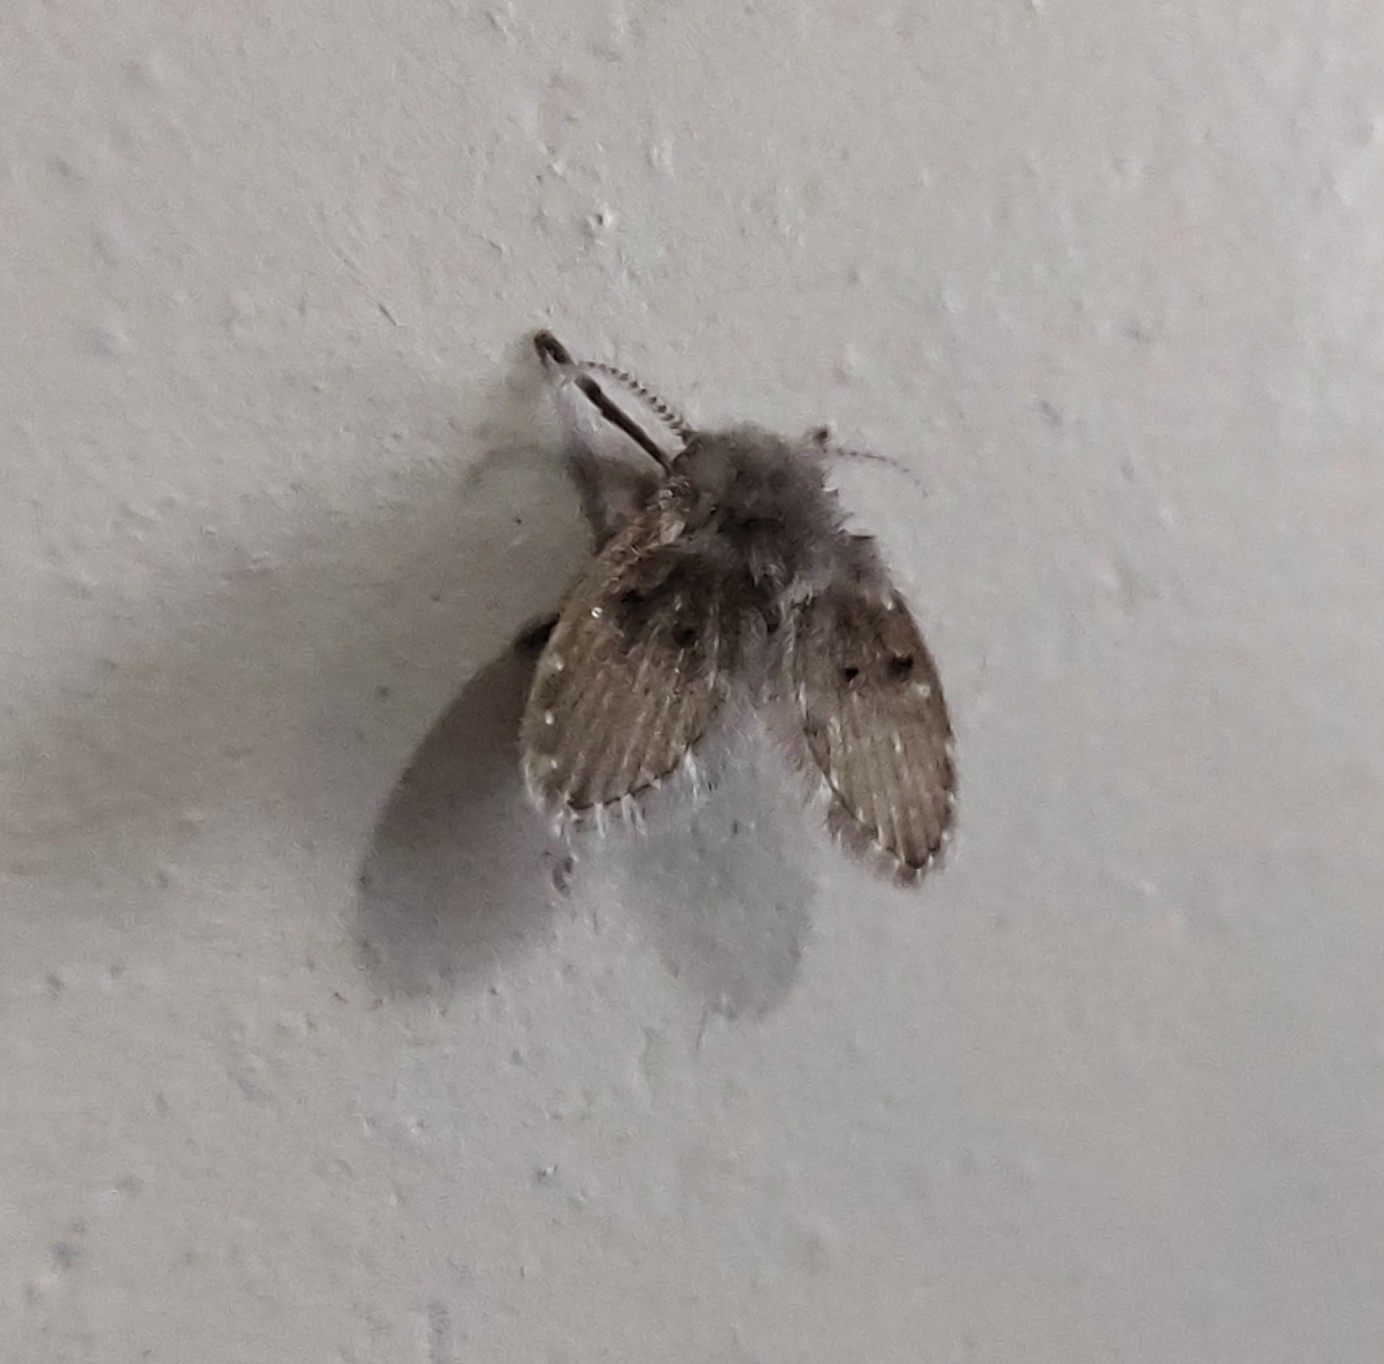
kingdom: Animalia
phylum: Arthropoda
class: Insecta
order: Diptera
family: Psychodidae
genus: Clogmia
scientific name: Clogmia albipunctatus
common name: White-spotted moth fly
